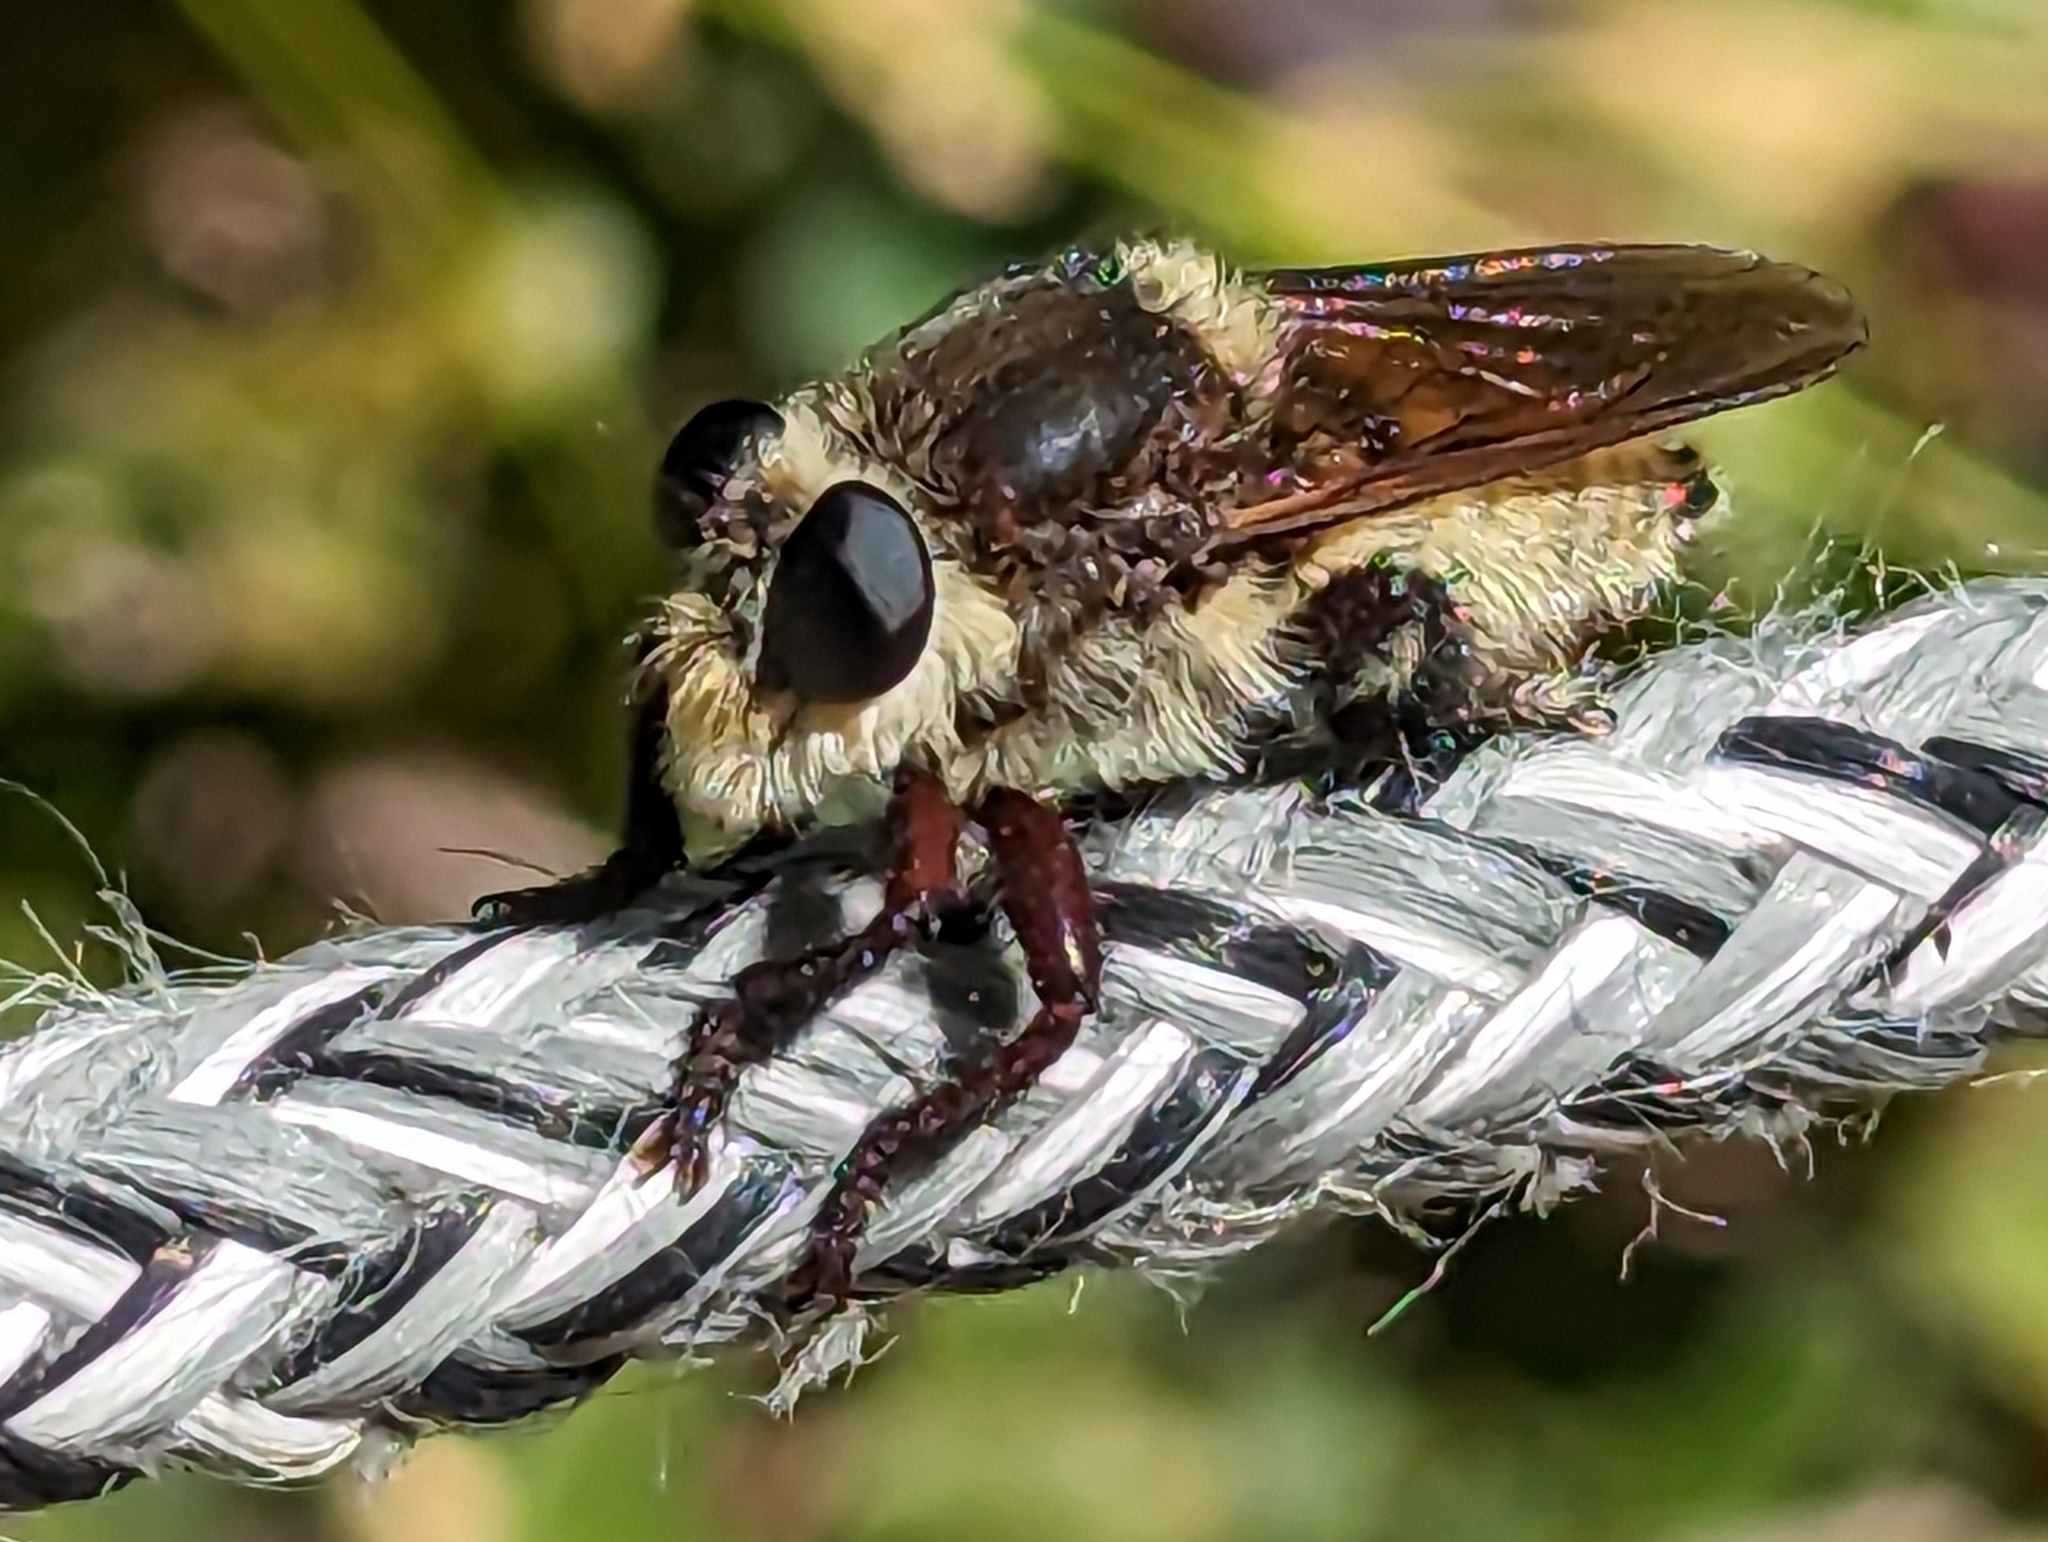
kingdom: Animalia
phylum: Arthropoda
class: Insecta
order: Diptera
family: Asilidae
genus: Mallophora
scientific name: Mallophora fautrix
